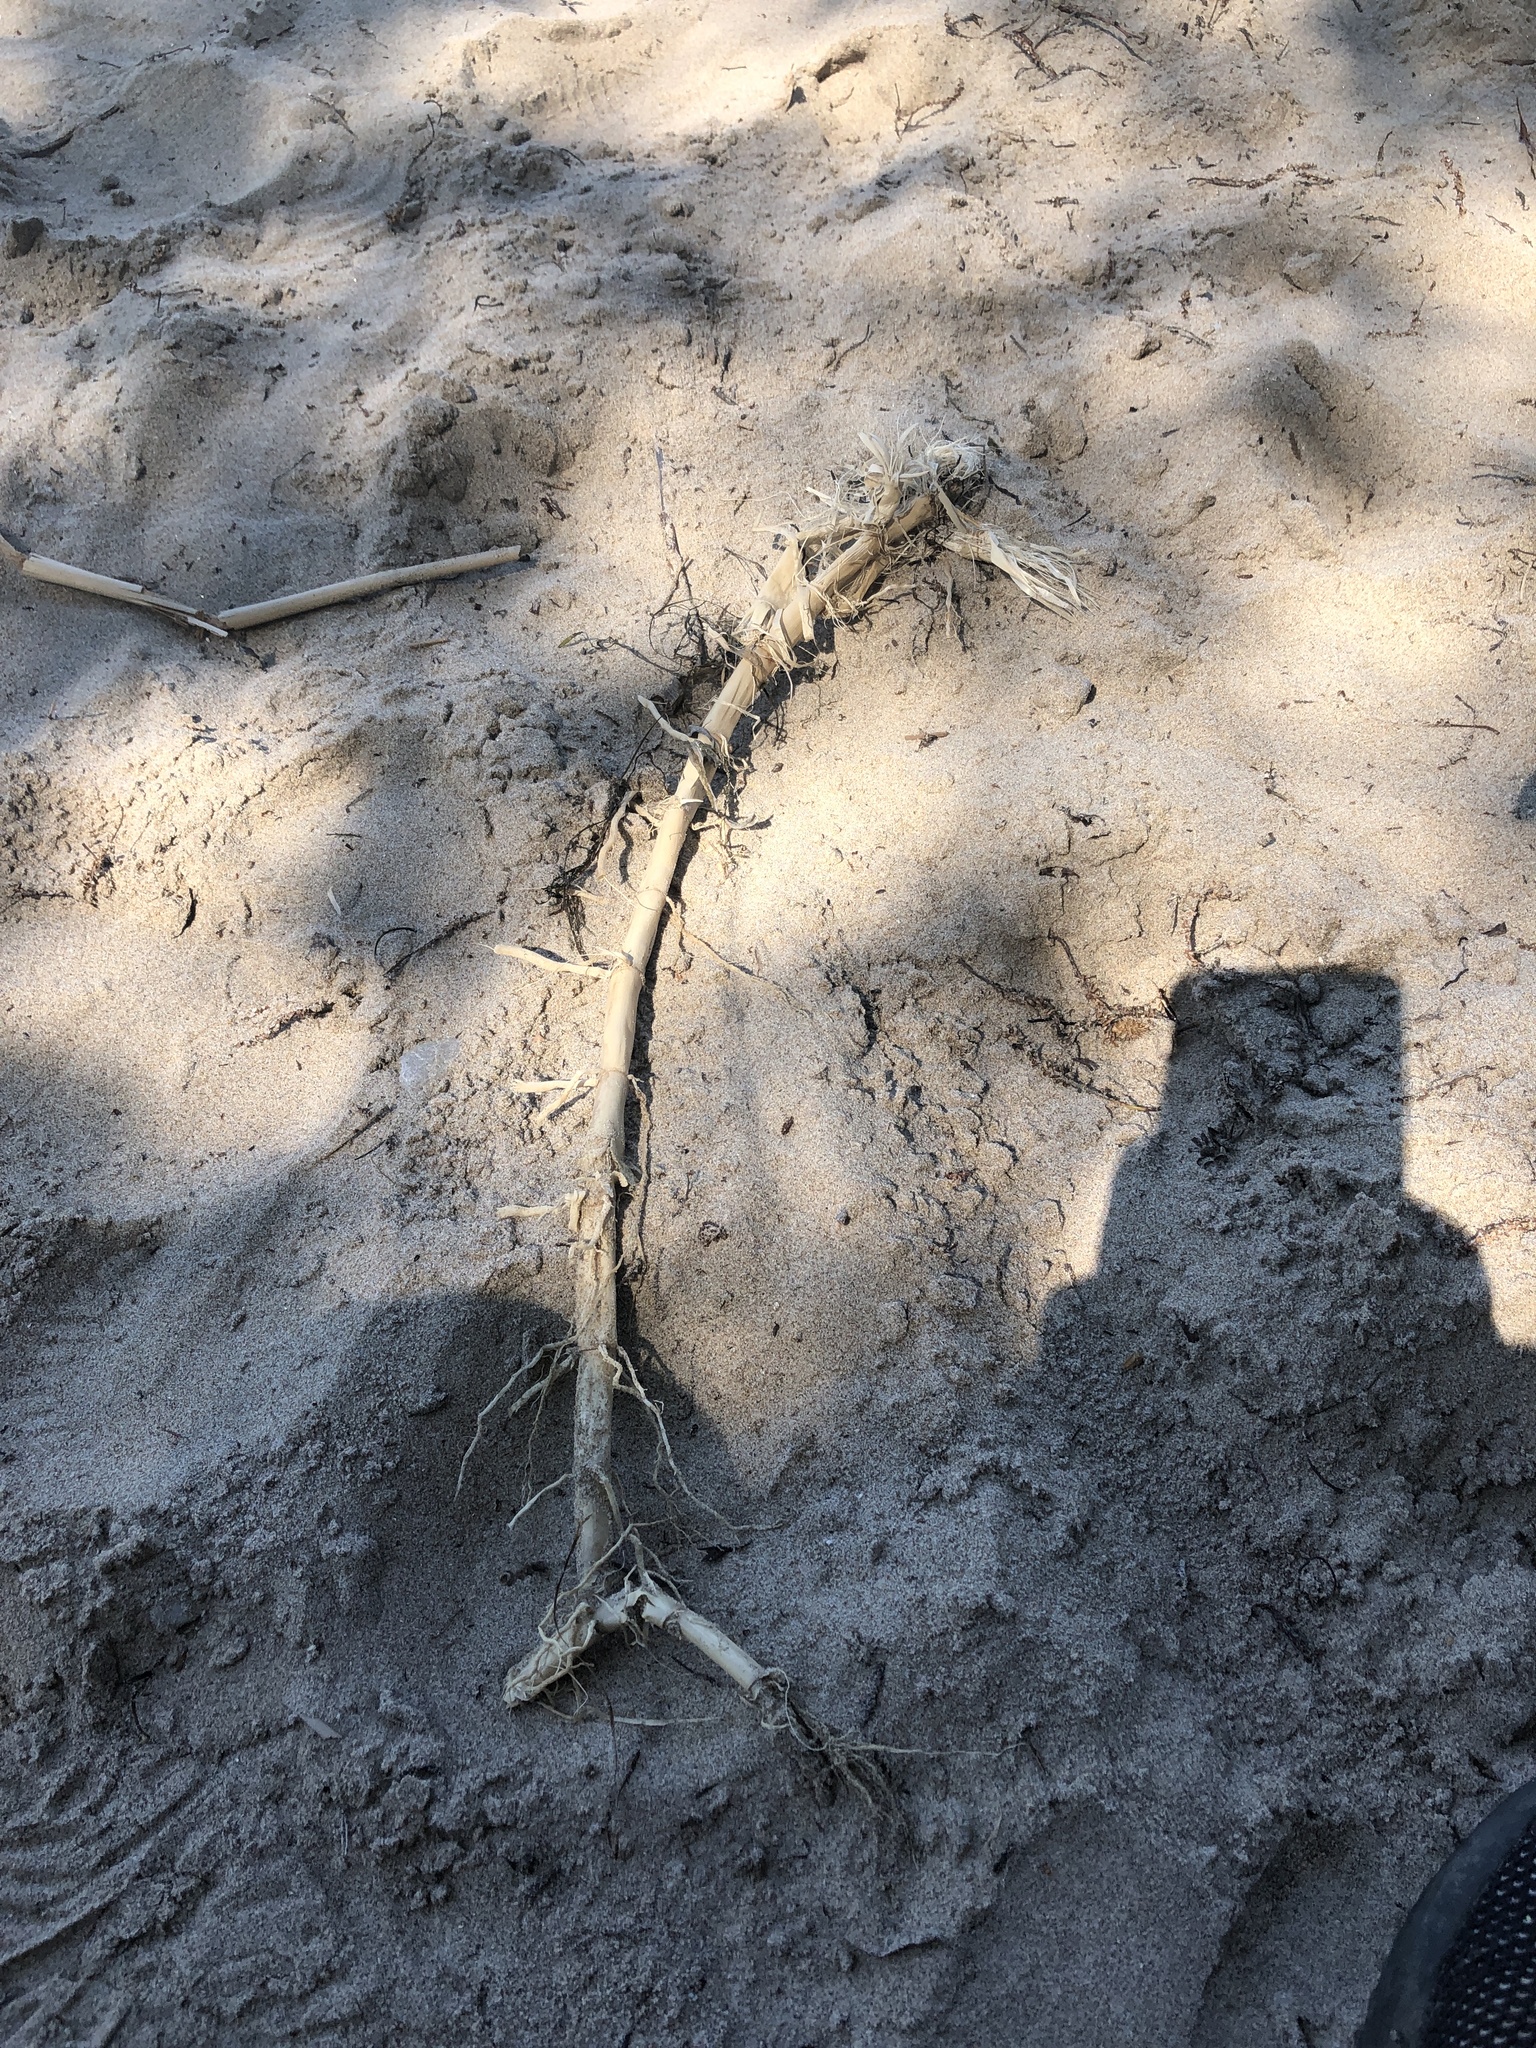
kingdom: Plantae
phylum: Tracheophyta
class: Liliopsida
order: Poales
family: Poaceae
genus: Phragmites
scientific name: Phragmites australis
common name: Common reed
